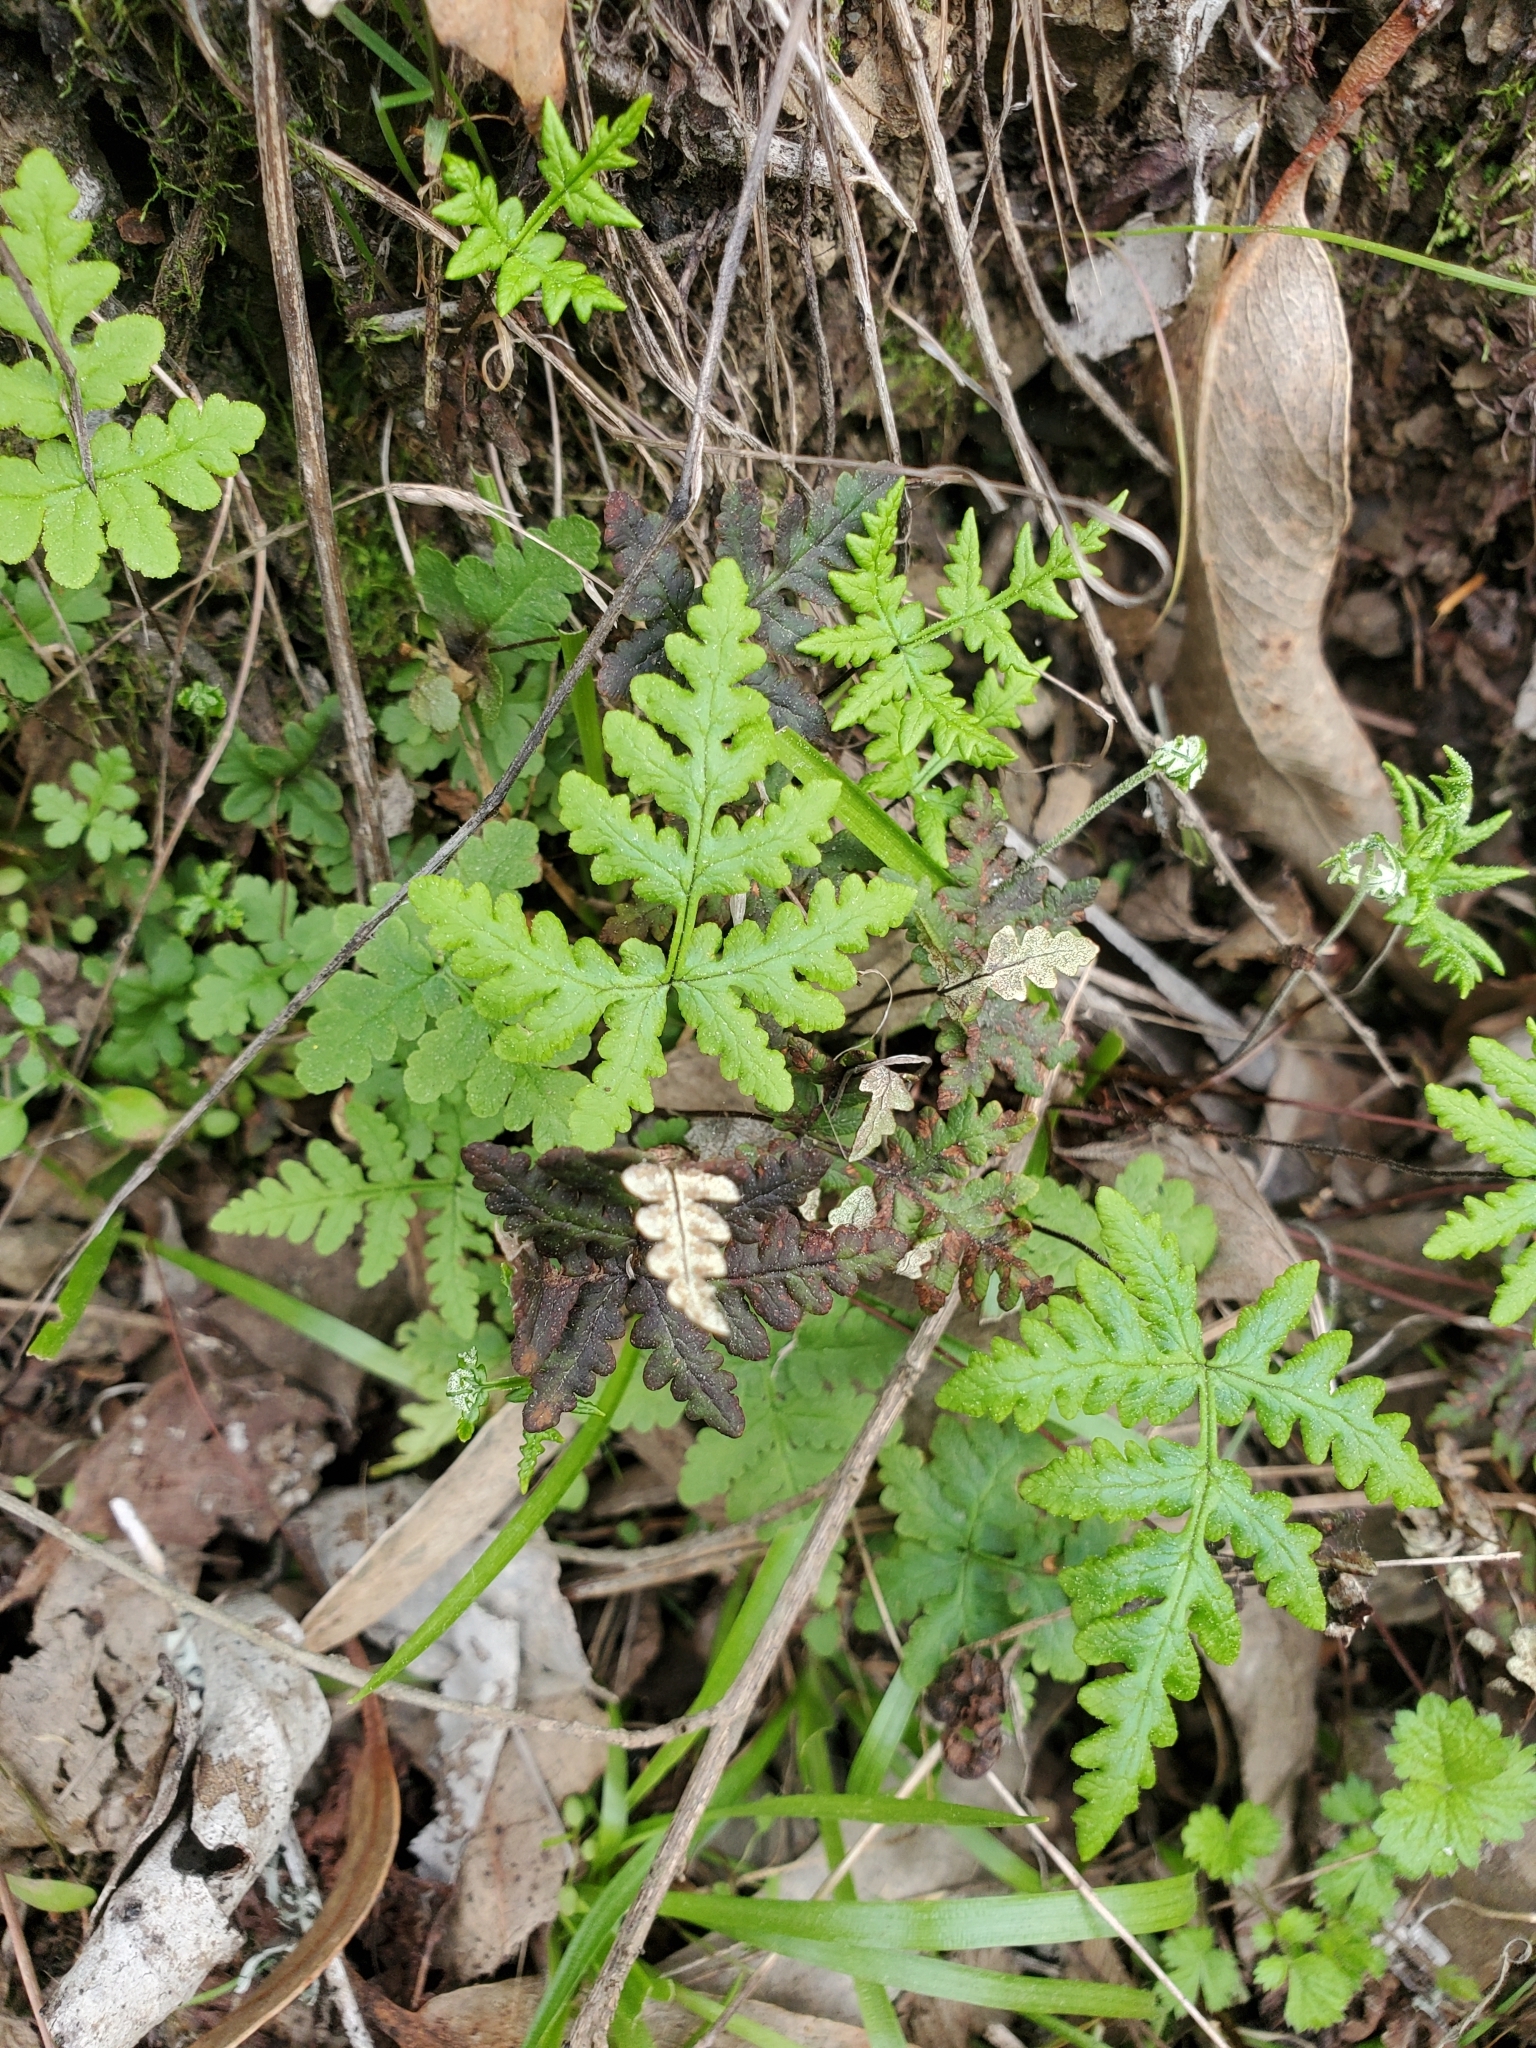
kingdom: Plantae
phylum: Tracheophyta
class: Polypodiopsida
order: Polypodiales
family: Pteridaceae
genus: Pentagramma
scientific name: Pentagramma triangularis
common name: Gold fern
